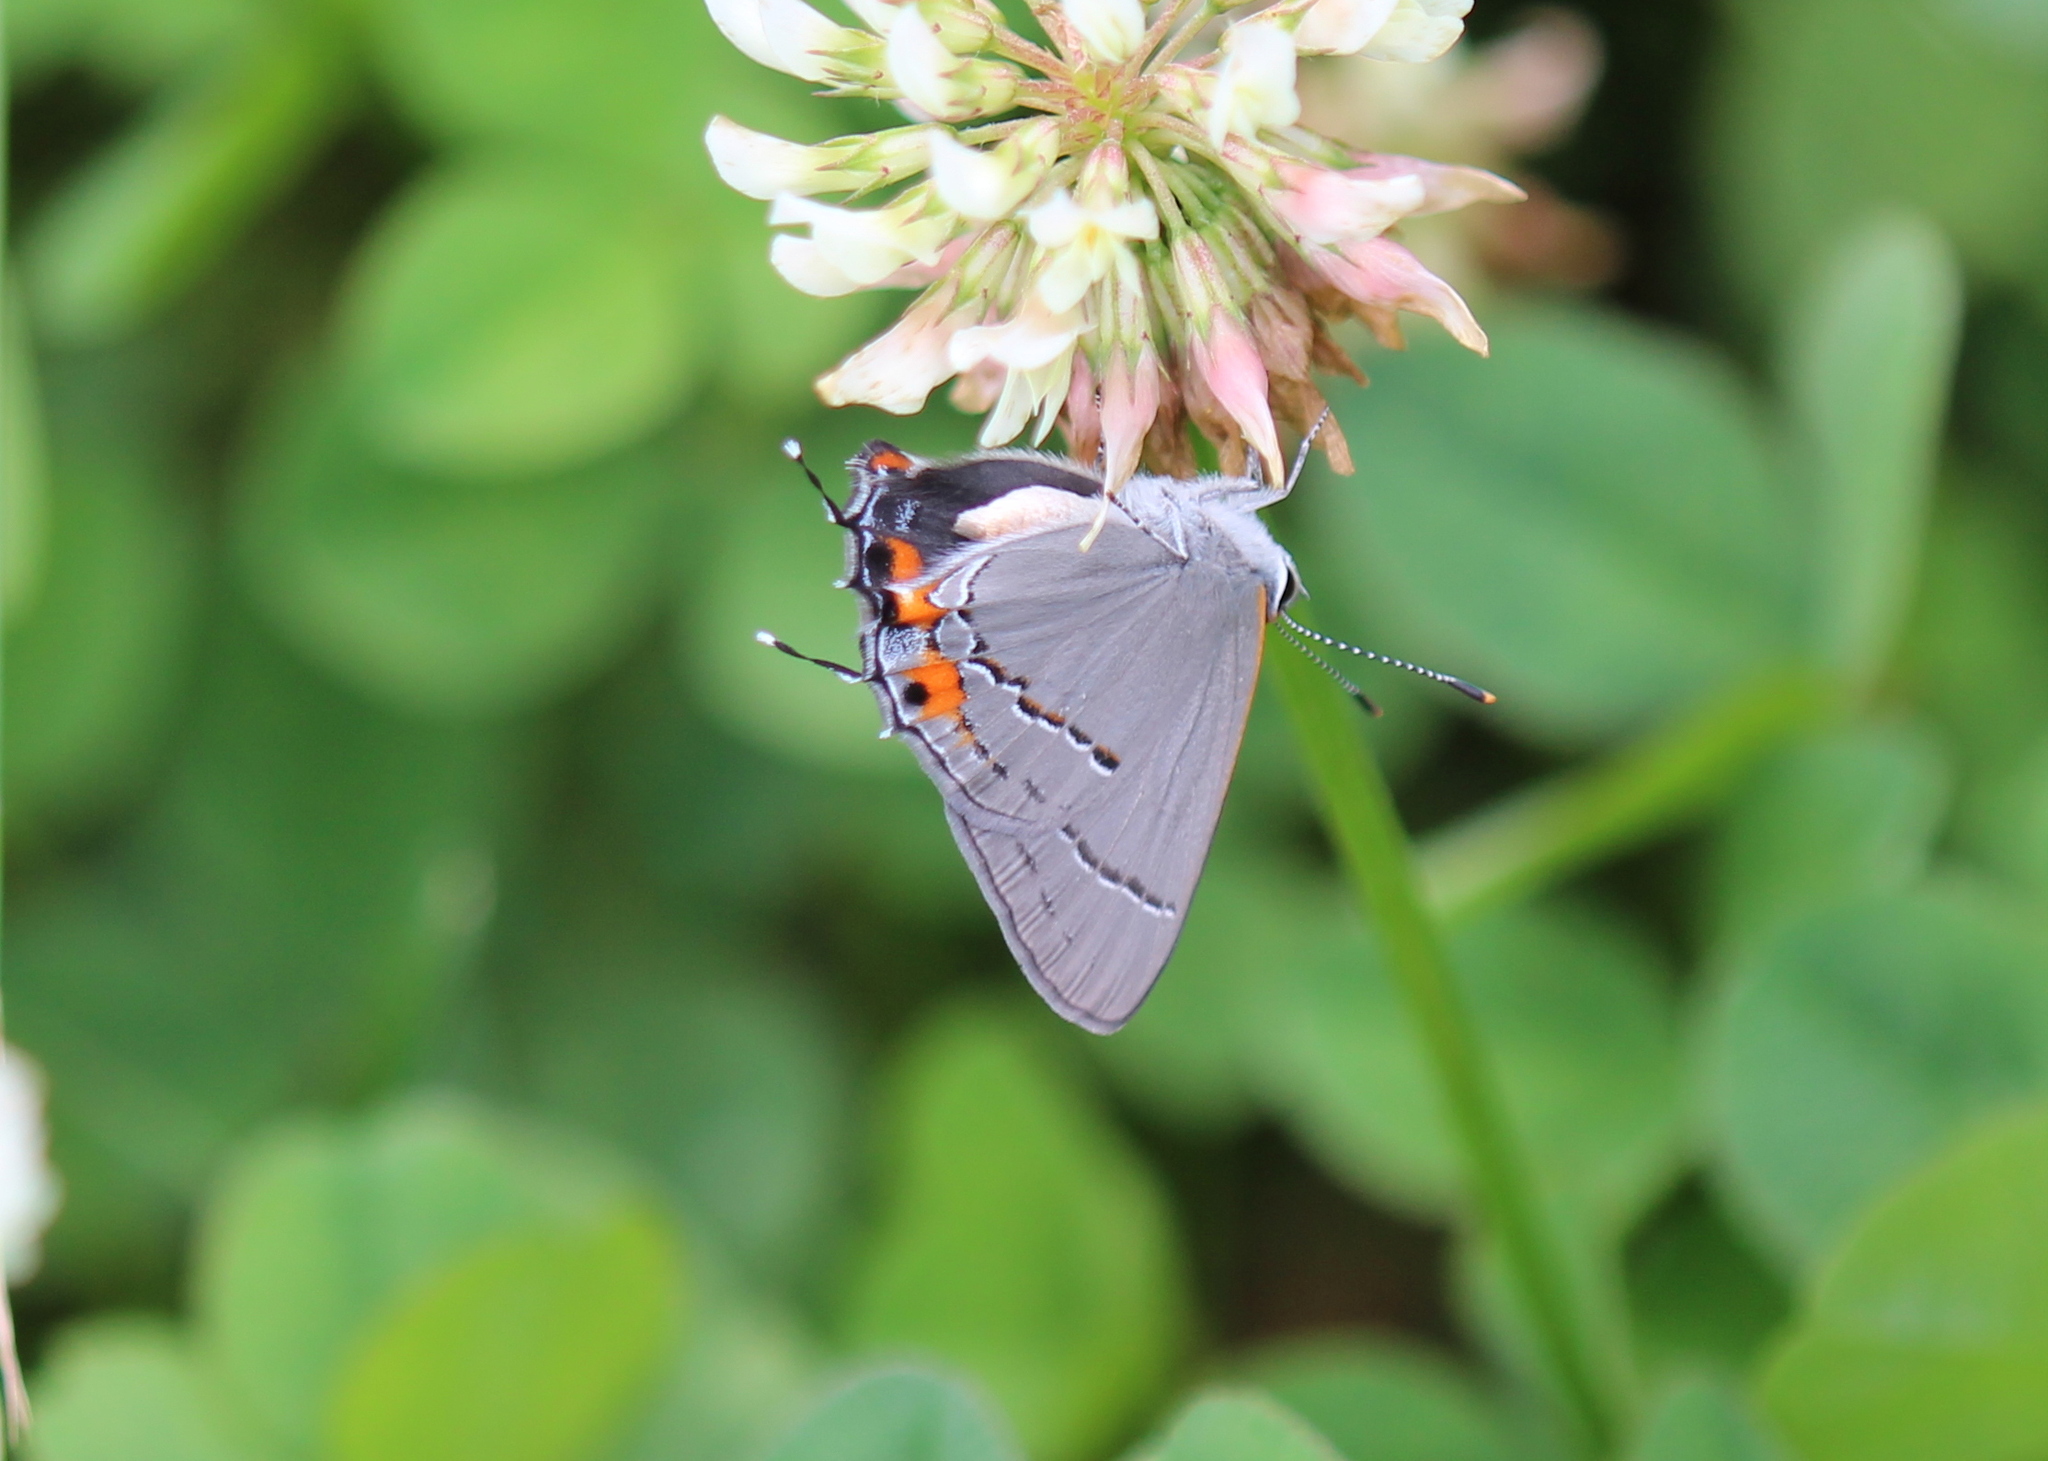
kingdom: Animalia
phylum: Arthropoda
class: Insecta
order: Lepidoptera
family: Lycaenidae
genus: Strymon
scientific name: Strymon melinus
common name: Gray hairstreak
